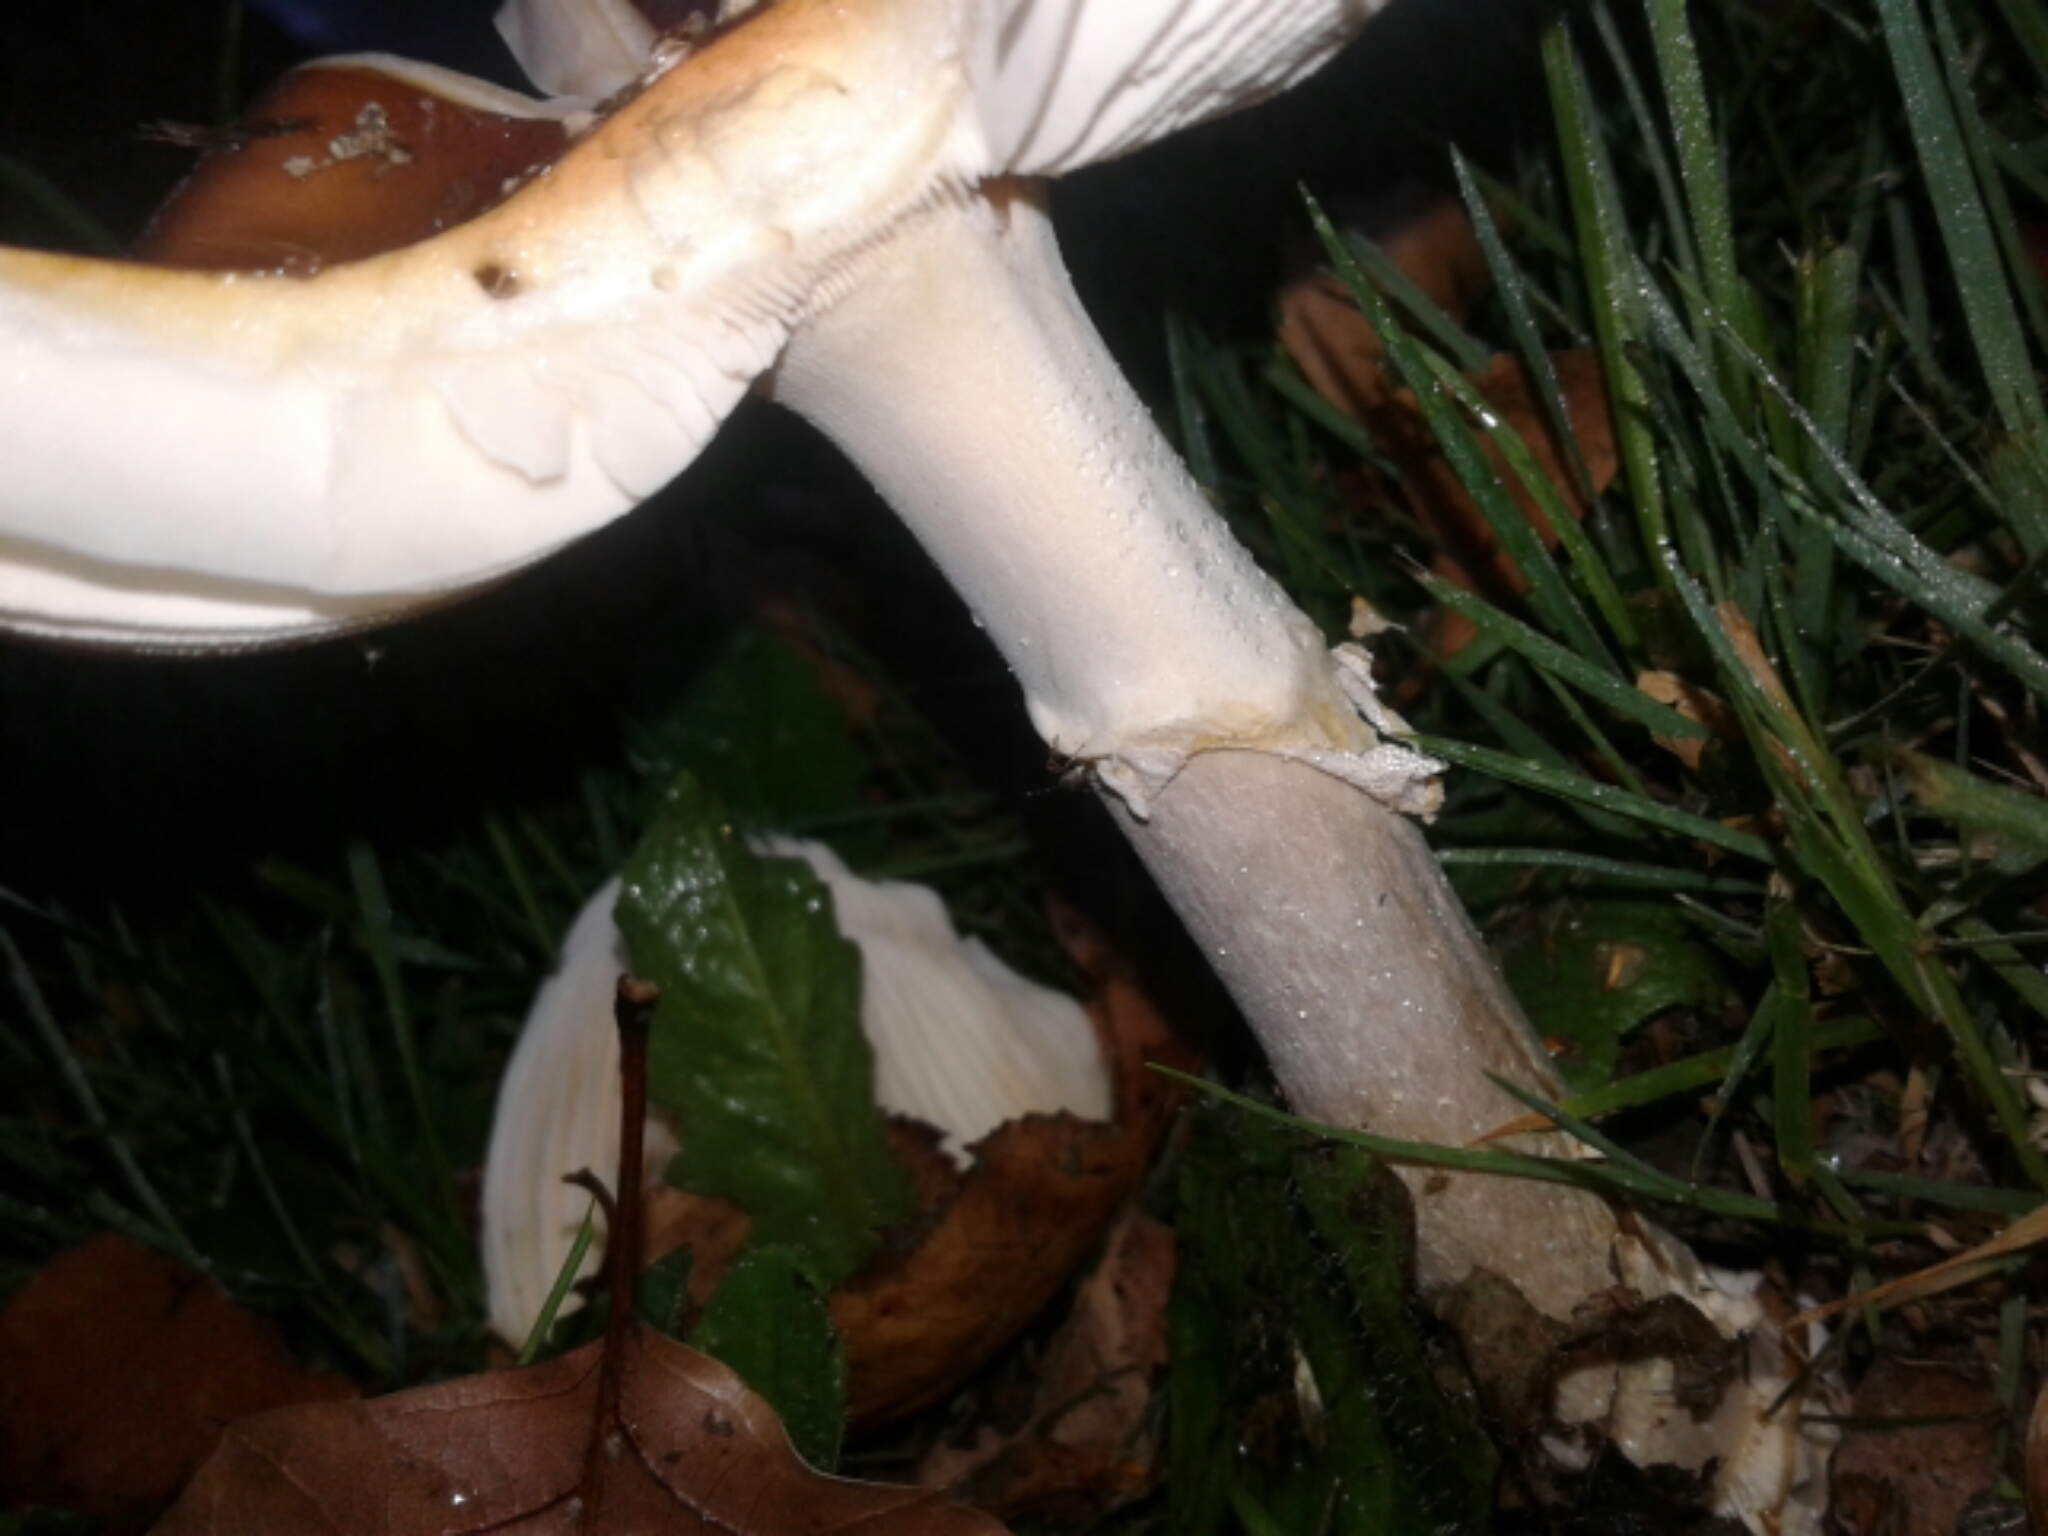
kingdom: Fungi
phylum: Basidiomycota
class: Agaricomycetes
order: Agaricales
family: Amanitaceae
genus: Amanita
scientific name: Amanita muscaria
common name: Fly agaric
